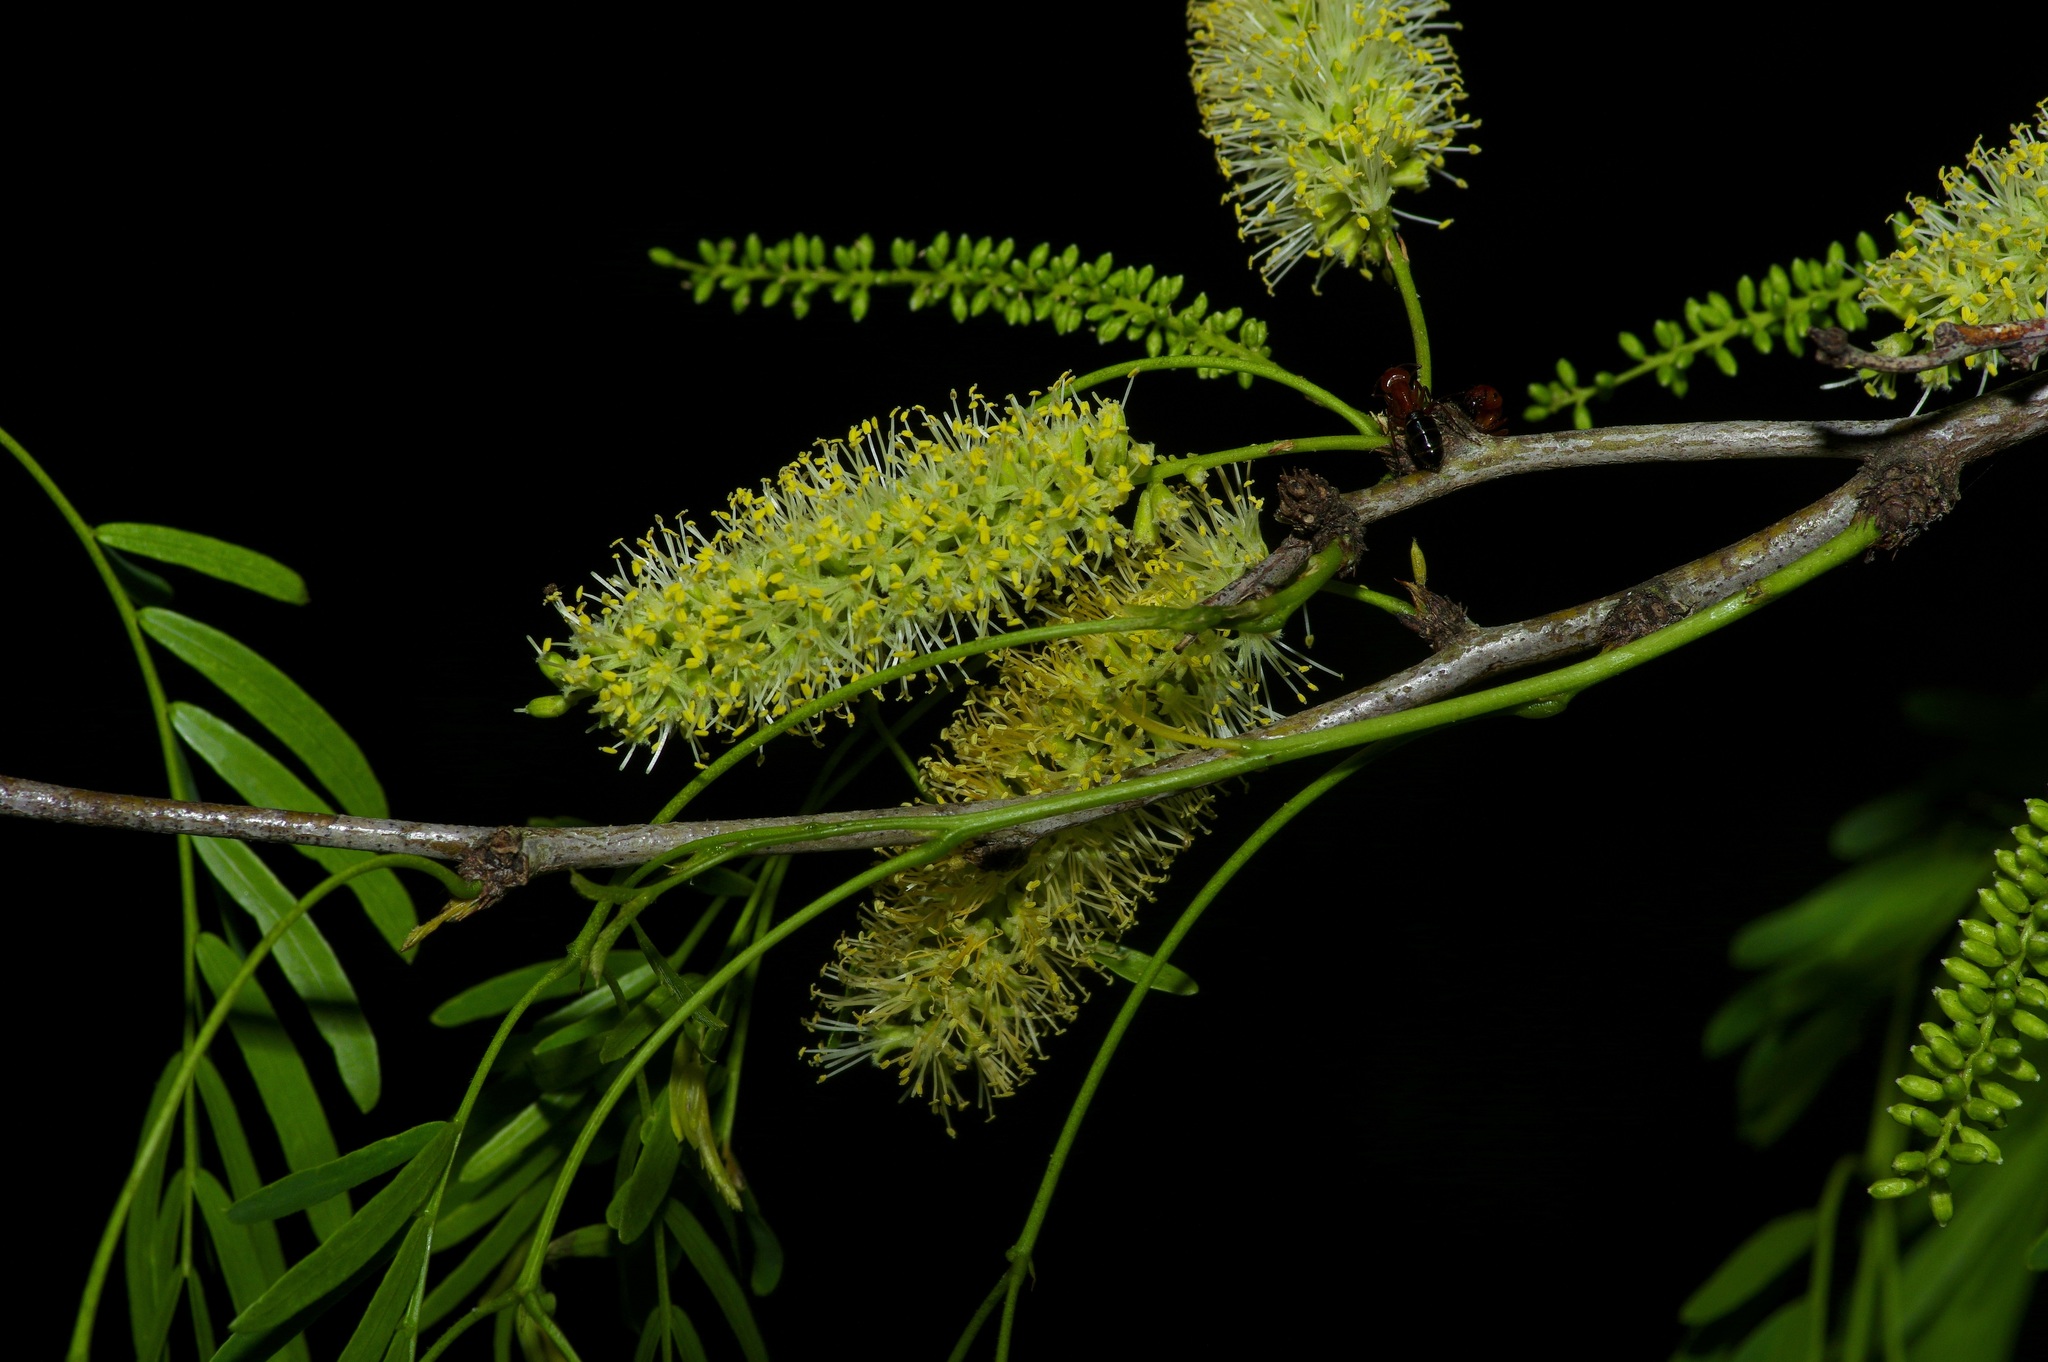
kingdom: Plantae
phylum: Tracheophyta
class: Magnoliopsida
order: Fabales
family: Fabaceae
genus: Prosopis
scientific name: Prosopis glandulosa
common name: Honey mesquite
